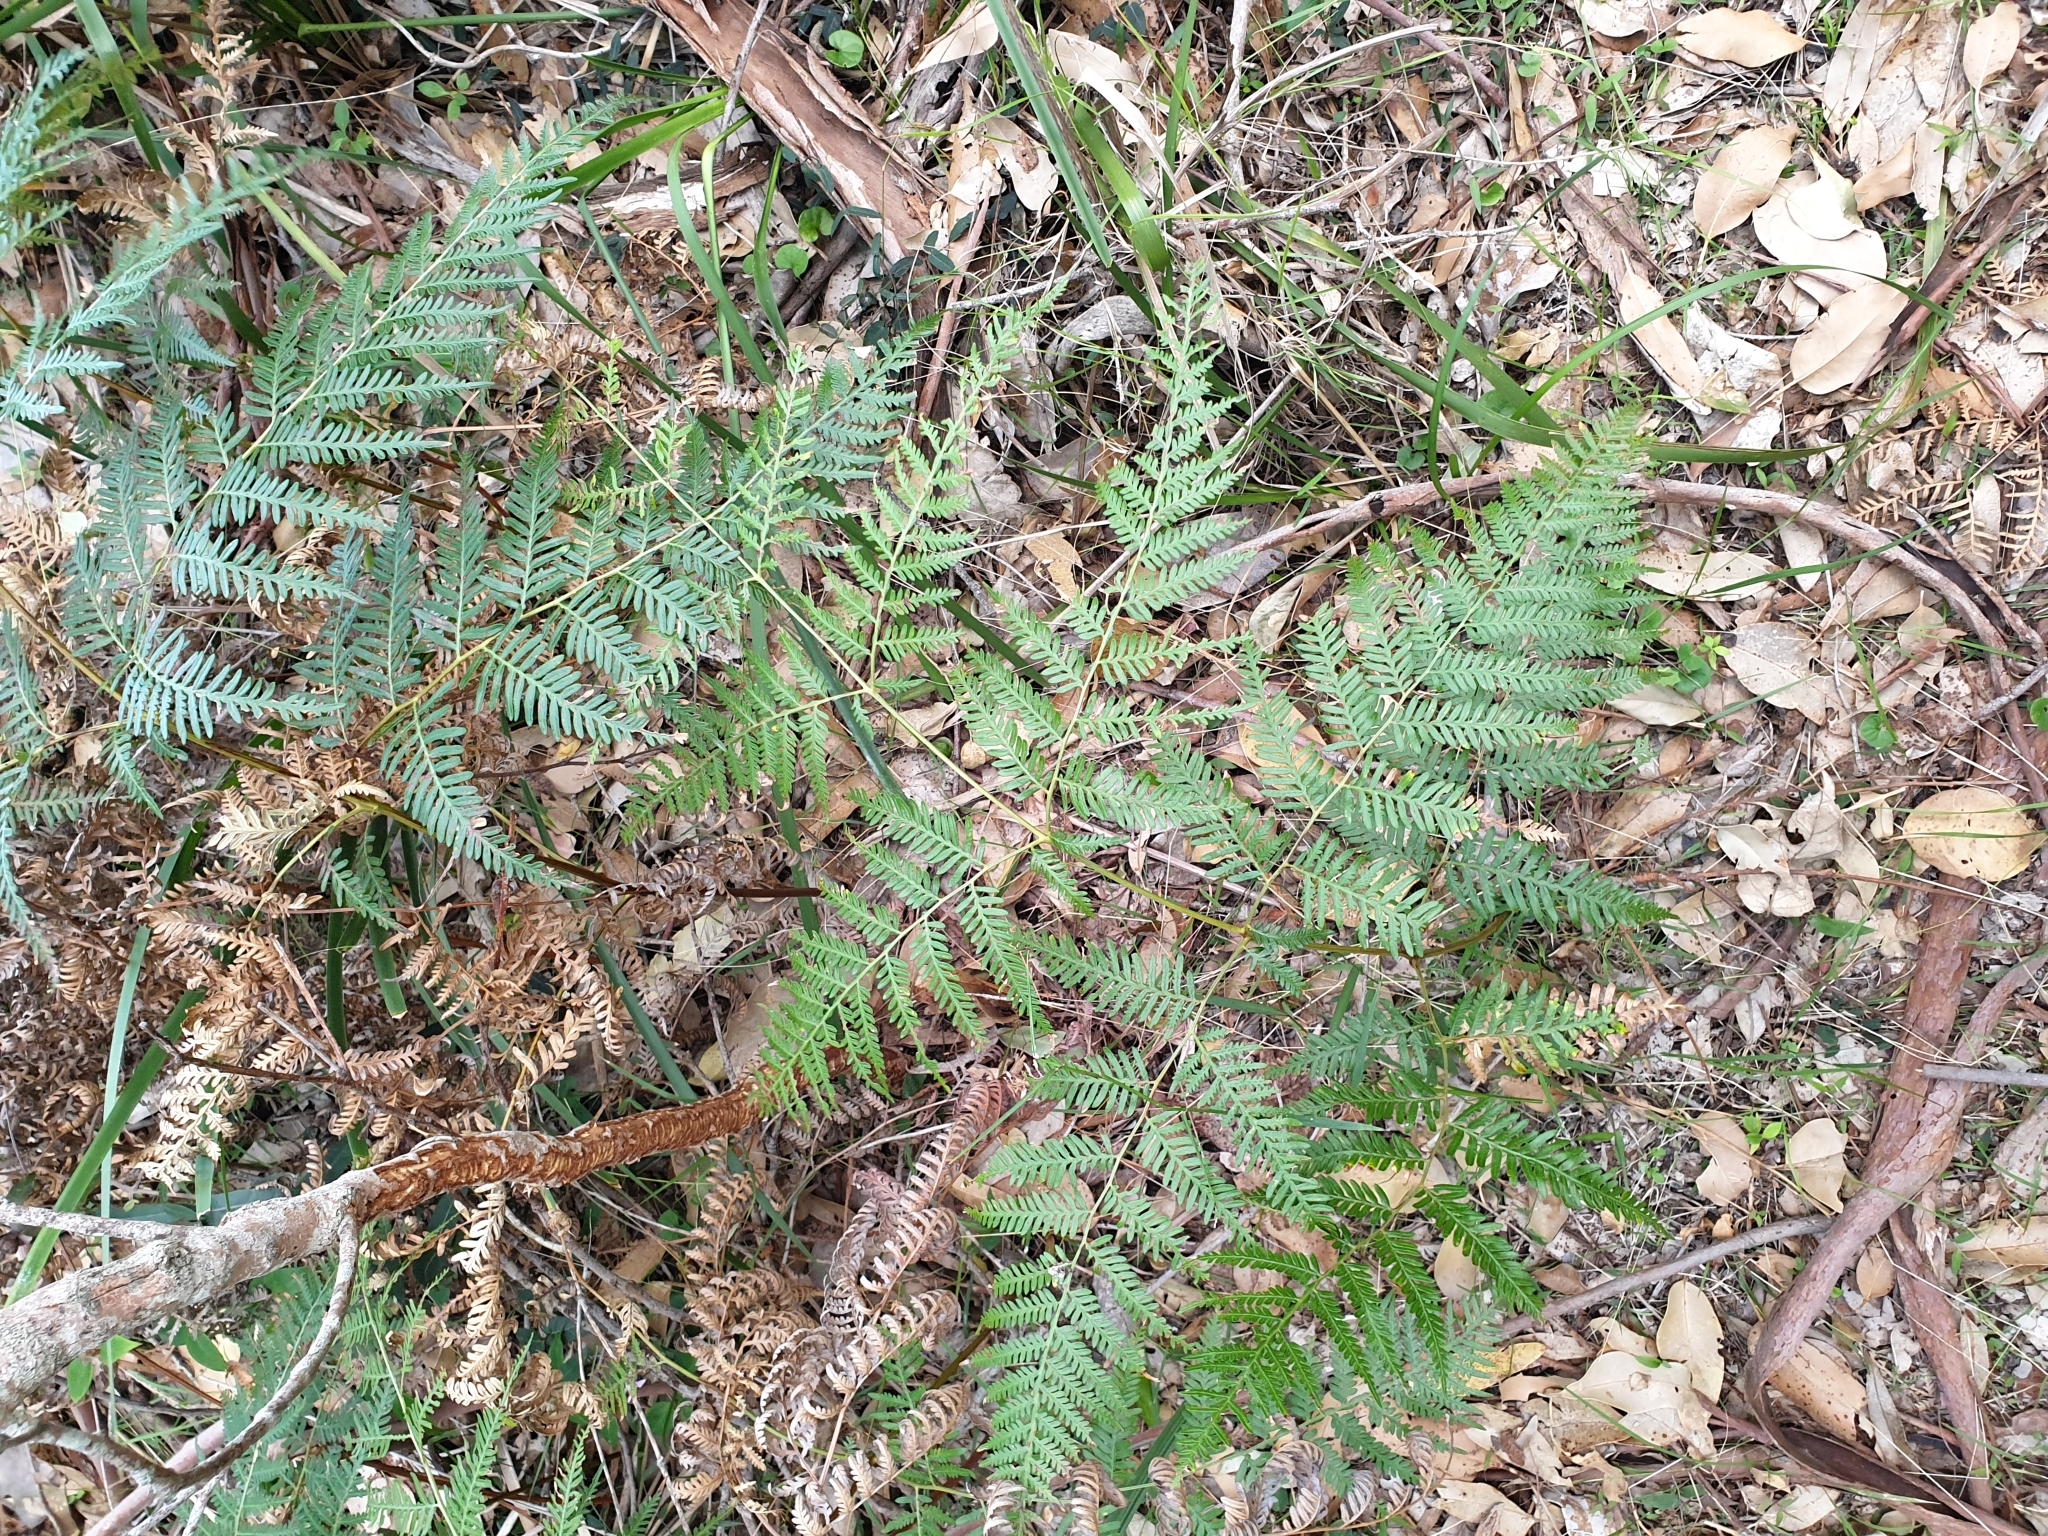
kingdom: Plantae
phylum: Tracheophyta
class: Polypodiopsida
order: Polypodiales
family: Dennstaedtiaceae
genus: Pteridium
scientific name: Pteridium esculentum
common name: Bracken fern
